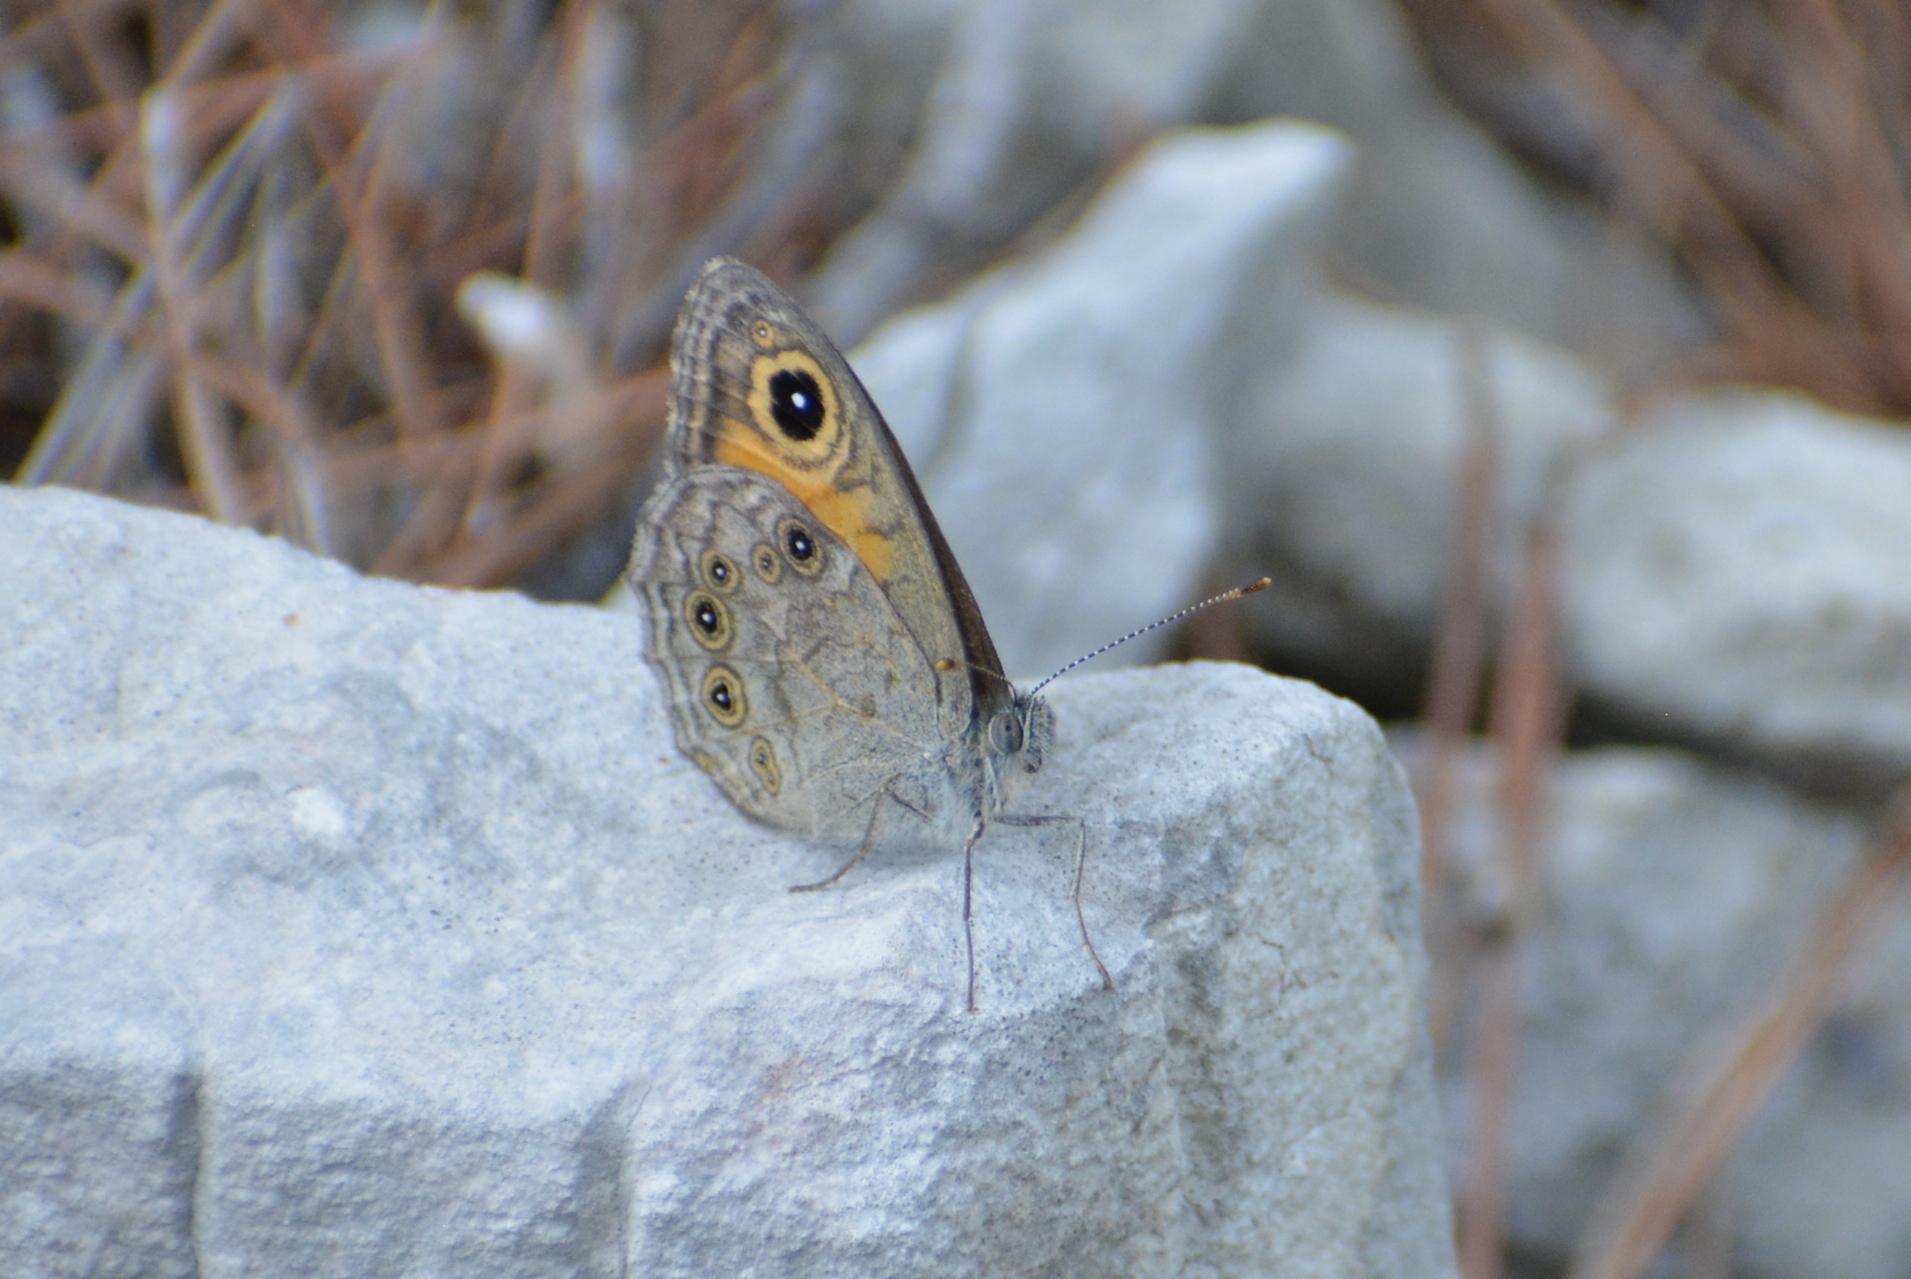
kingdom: Animalia
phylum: Arthropoda
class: Insecta
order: Lepidoptera
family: Nymphalidae
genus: Pararge
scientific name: Pararge Lasiommata maera
